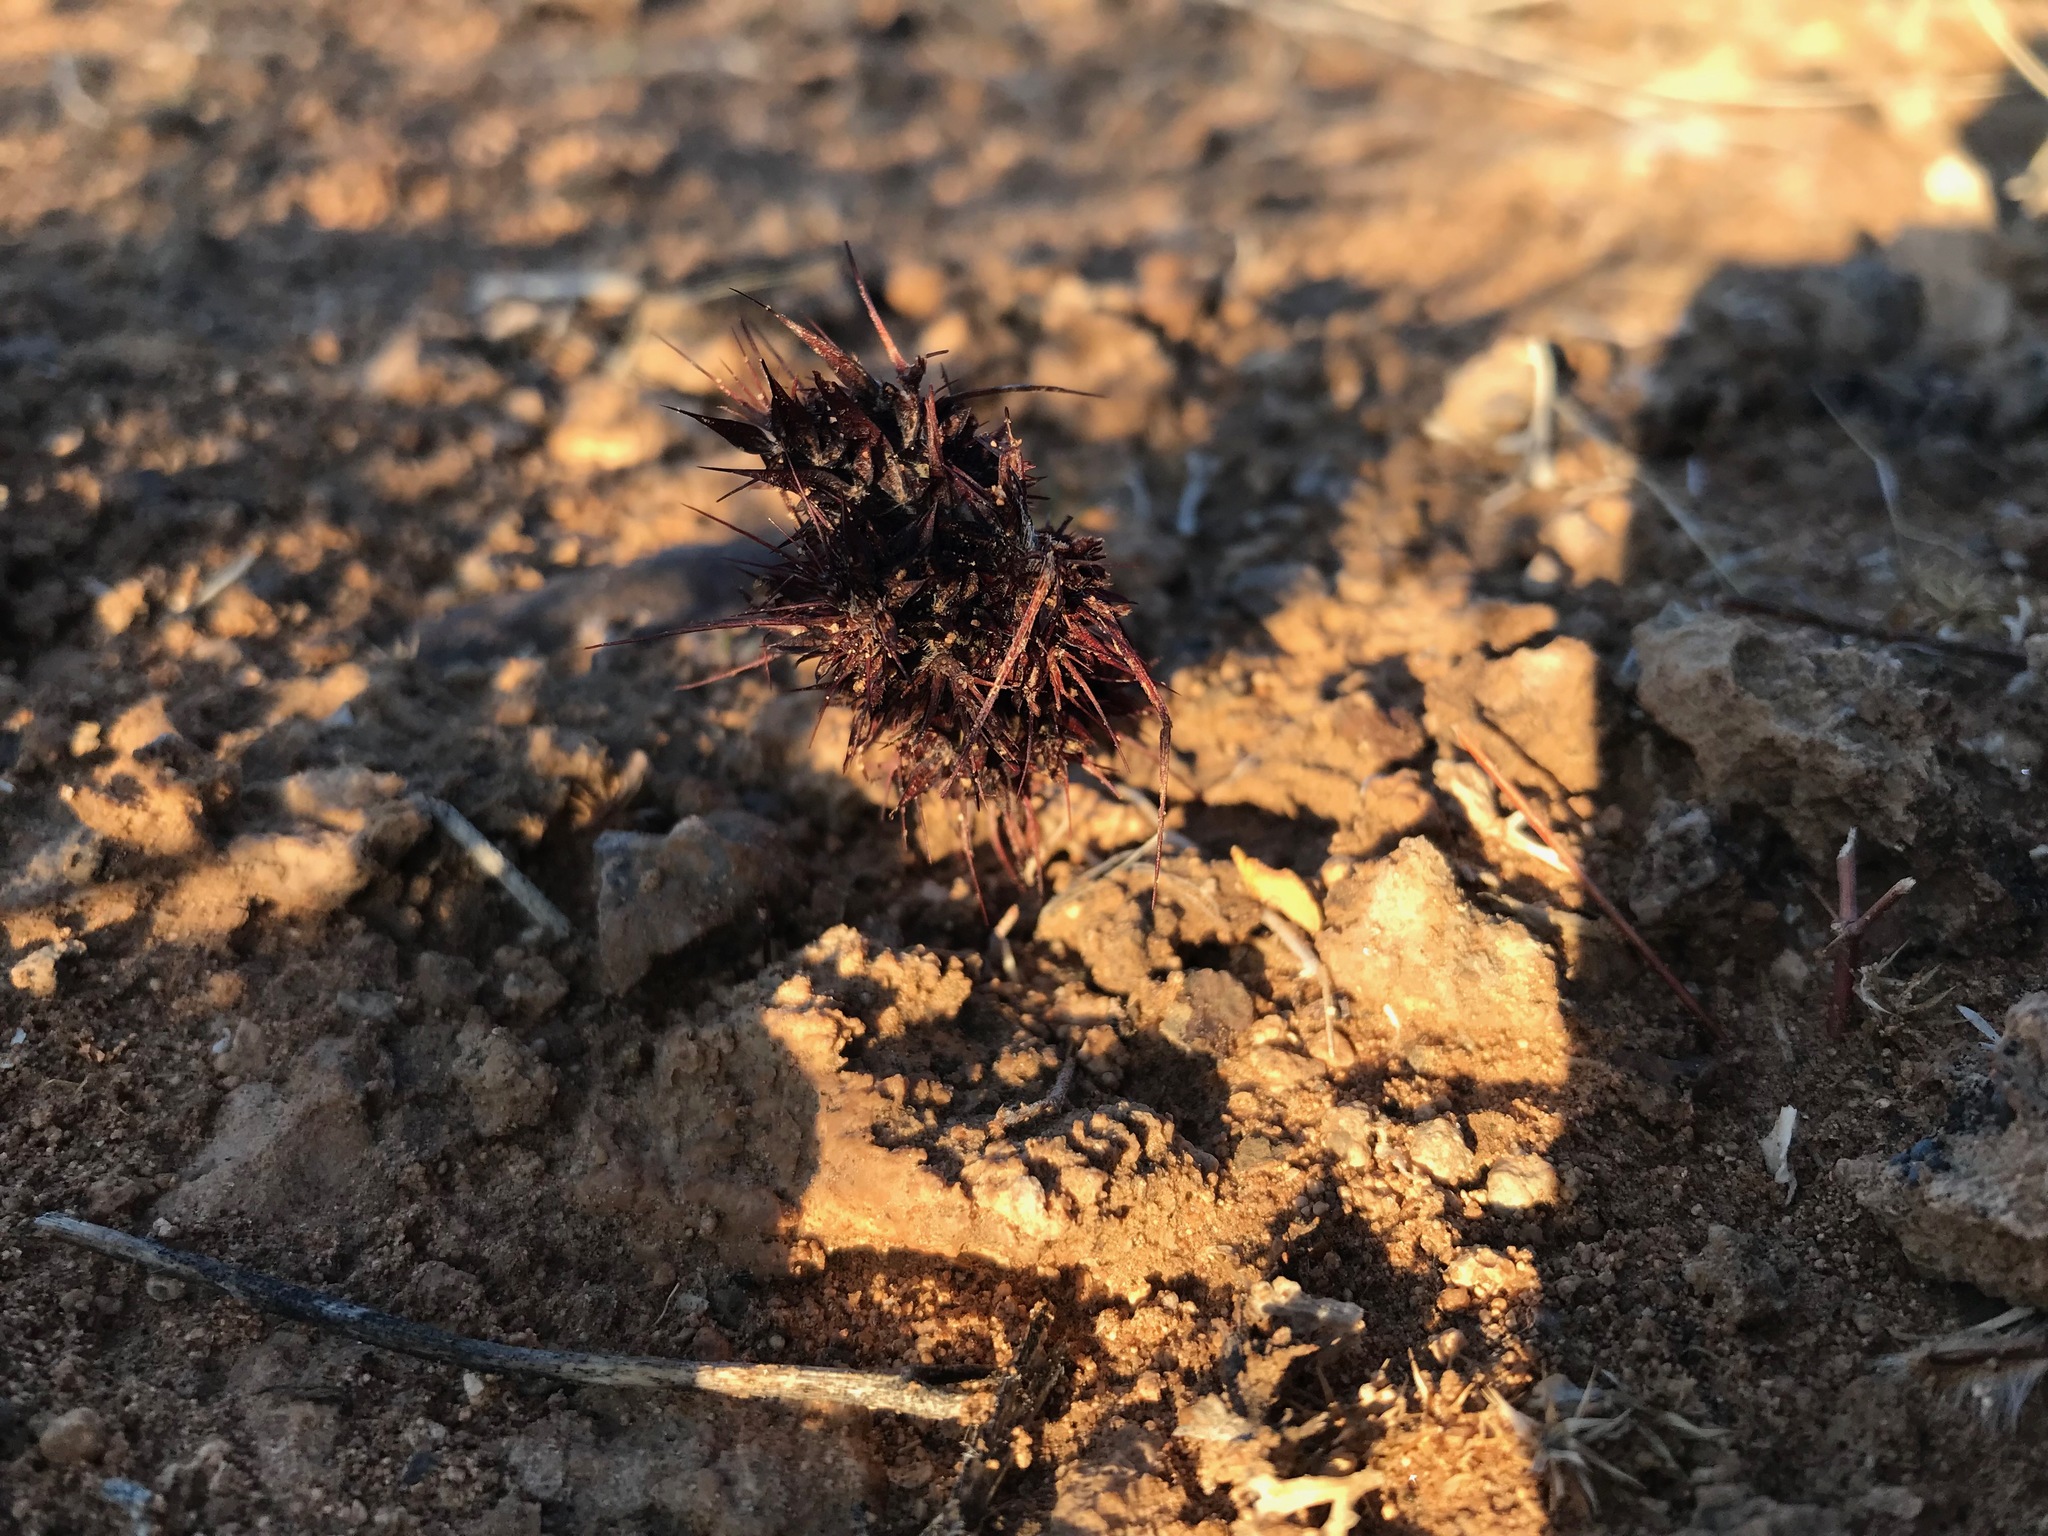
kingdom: Plantae
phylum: Tracheophyta
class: Magnoliopsida
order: Caryophyllales
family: Polygonaceae
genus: Chorizanthe
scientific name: Chorizanthe rigida
